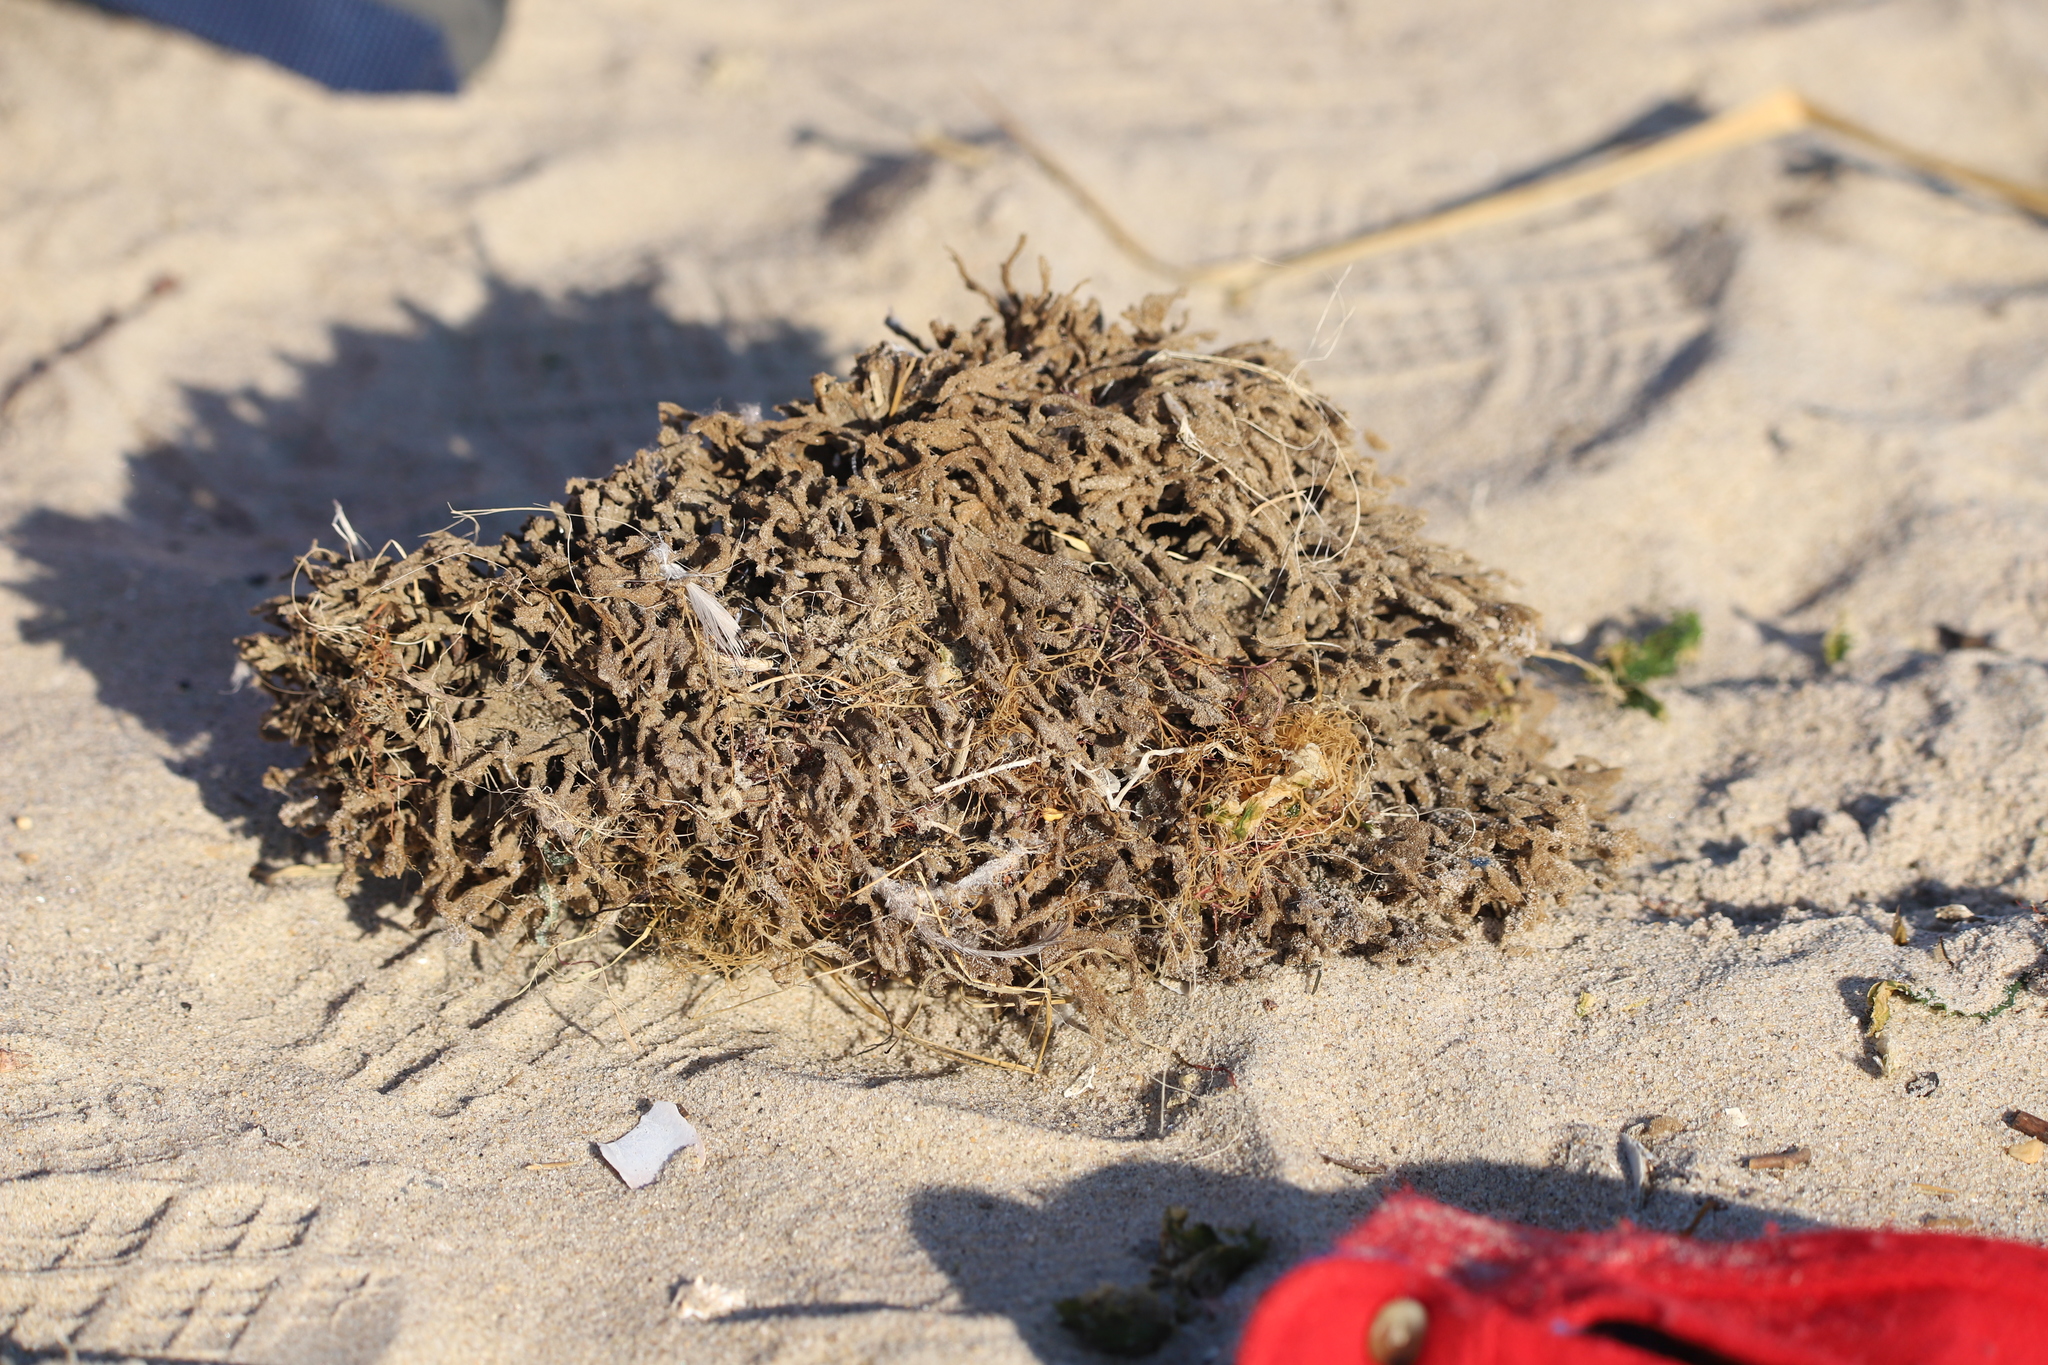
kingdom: Animalia
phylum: Porifera
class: Demospongiae
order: Poecilosclerida
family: Microcionidae
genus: Clathria
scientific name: Clathria prolifera
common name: Red beard sponge
